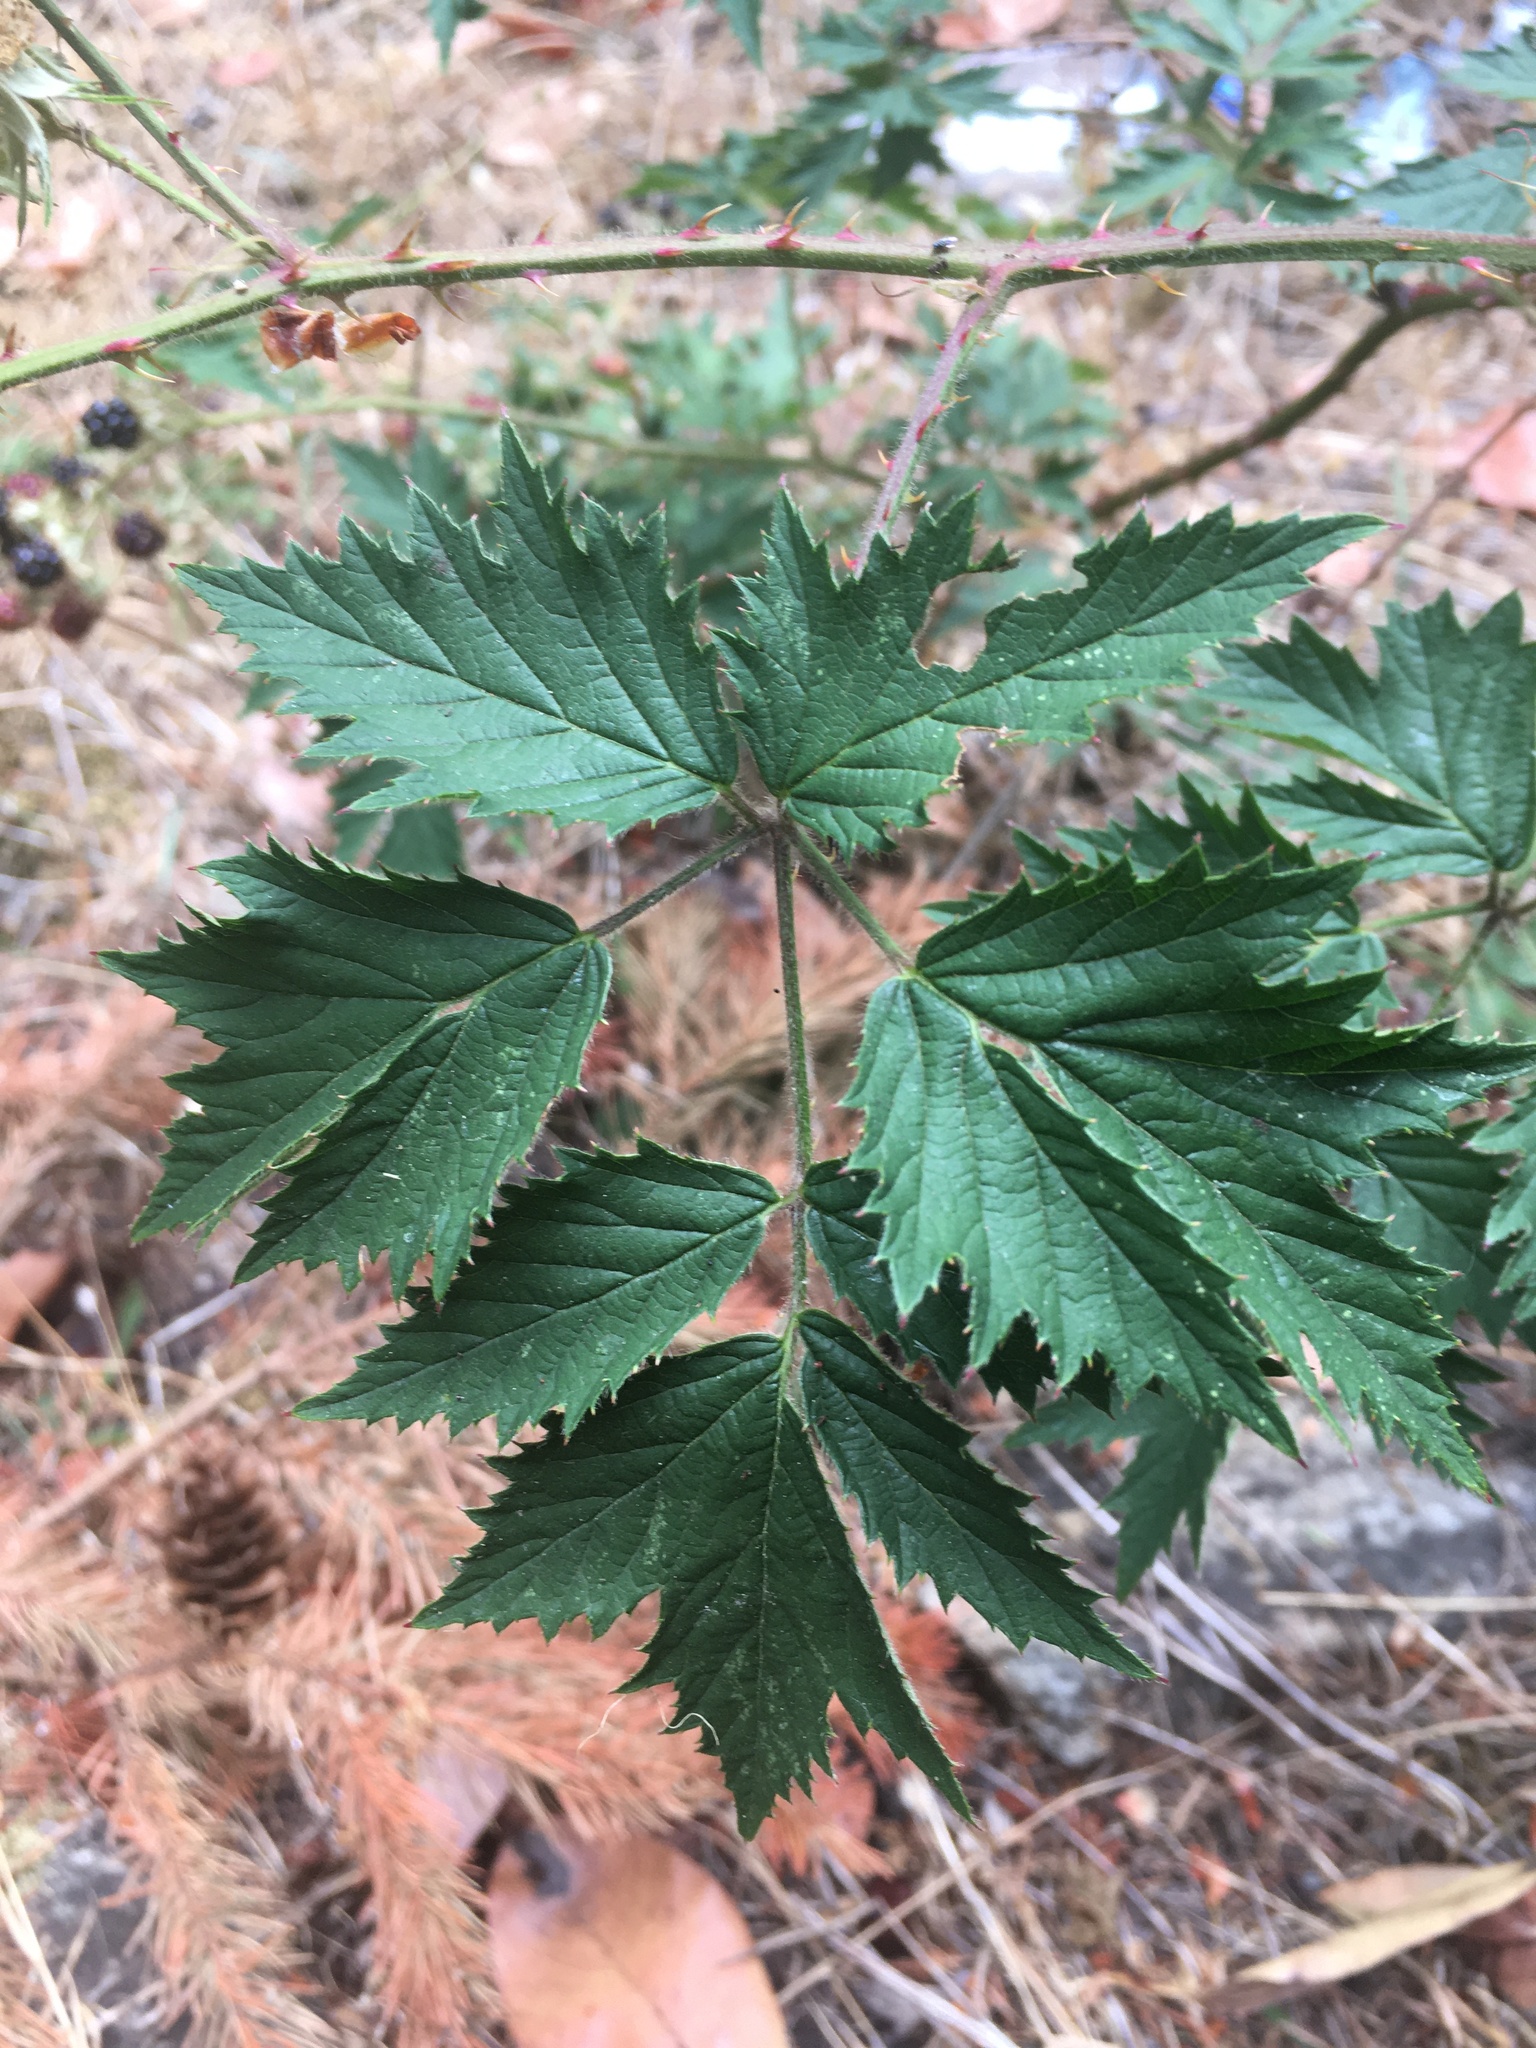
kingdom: Plantae
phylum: Tracheophyta
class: Magnoliopsida
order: Rosales
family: Rosaceae
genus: Rubus
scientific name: Rubus laciniatus
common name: Evergreen blackberry
